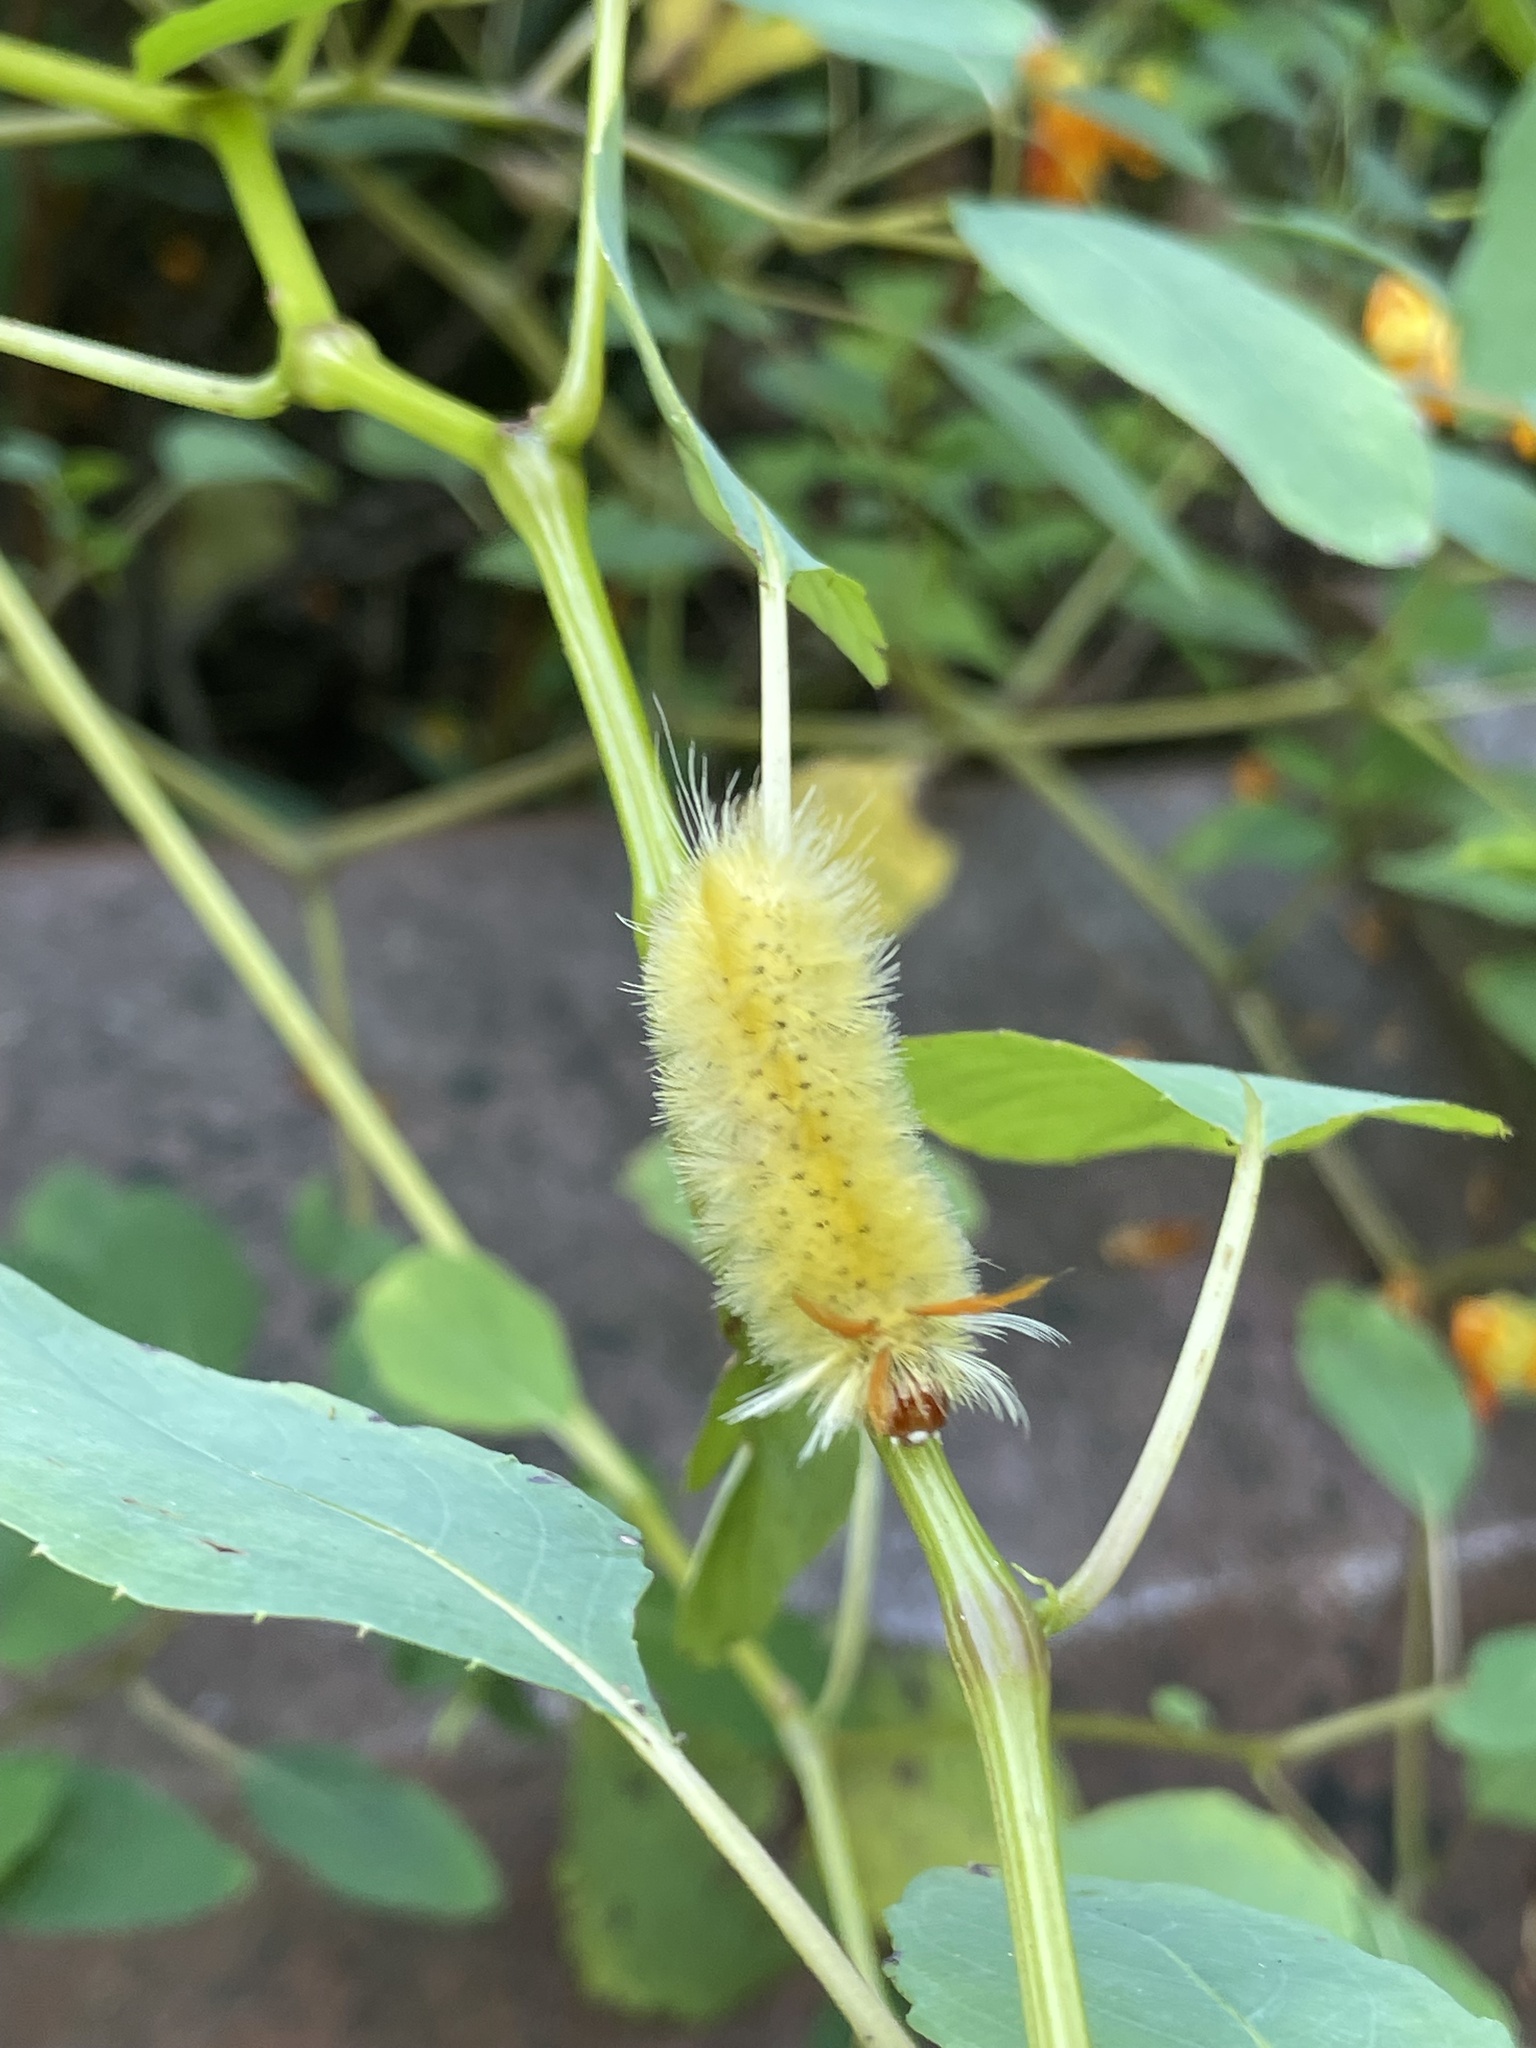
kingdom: Animalia
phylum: Arthropoda
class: Insecta
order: Lepidoptera
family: Erebidae
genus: Halysidota
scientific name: Halysidota harrisii
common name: Sycamore tussock moth
